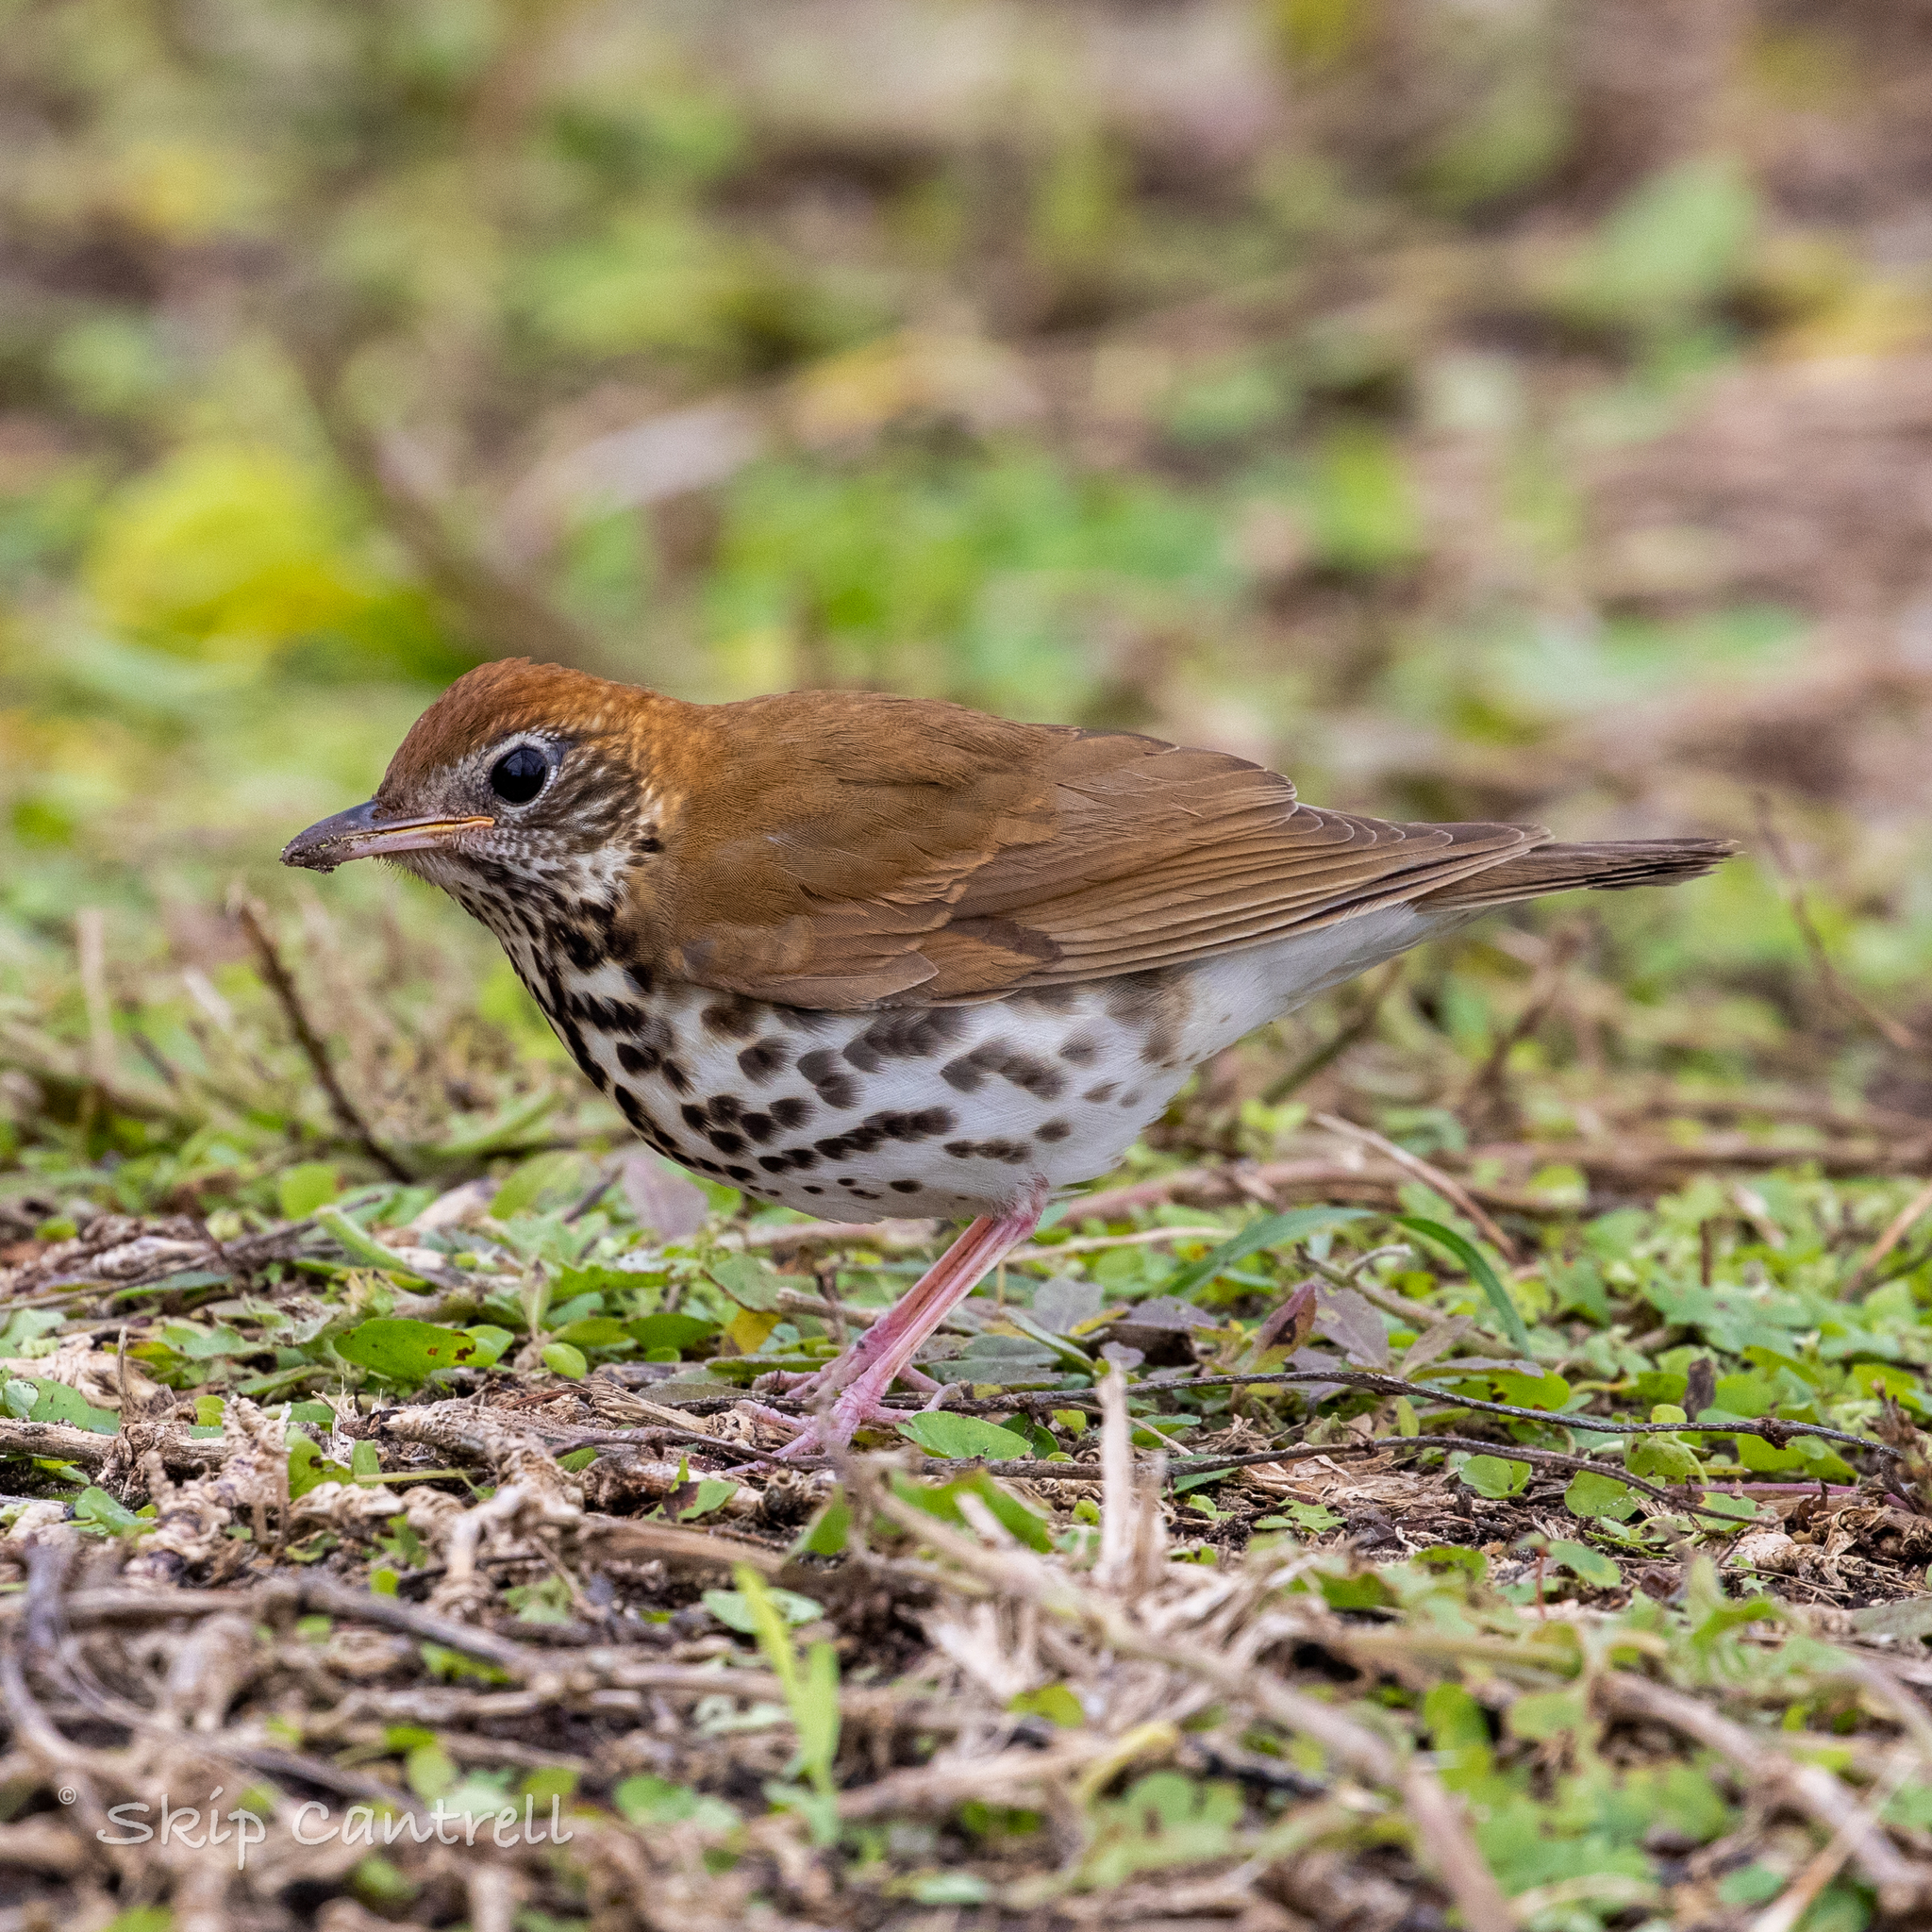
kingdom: Animalia
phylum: Chordata
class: Aves
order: Passeriformes
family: Turdidae
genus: Hylocichla
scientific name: Hylocichla mustelina
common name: Wood thrush
